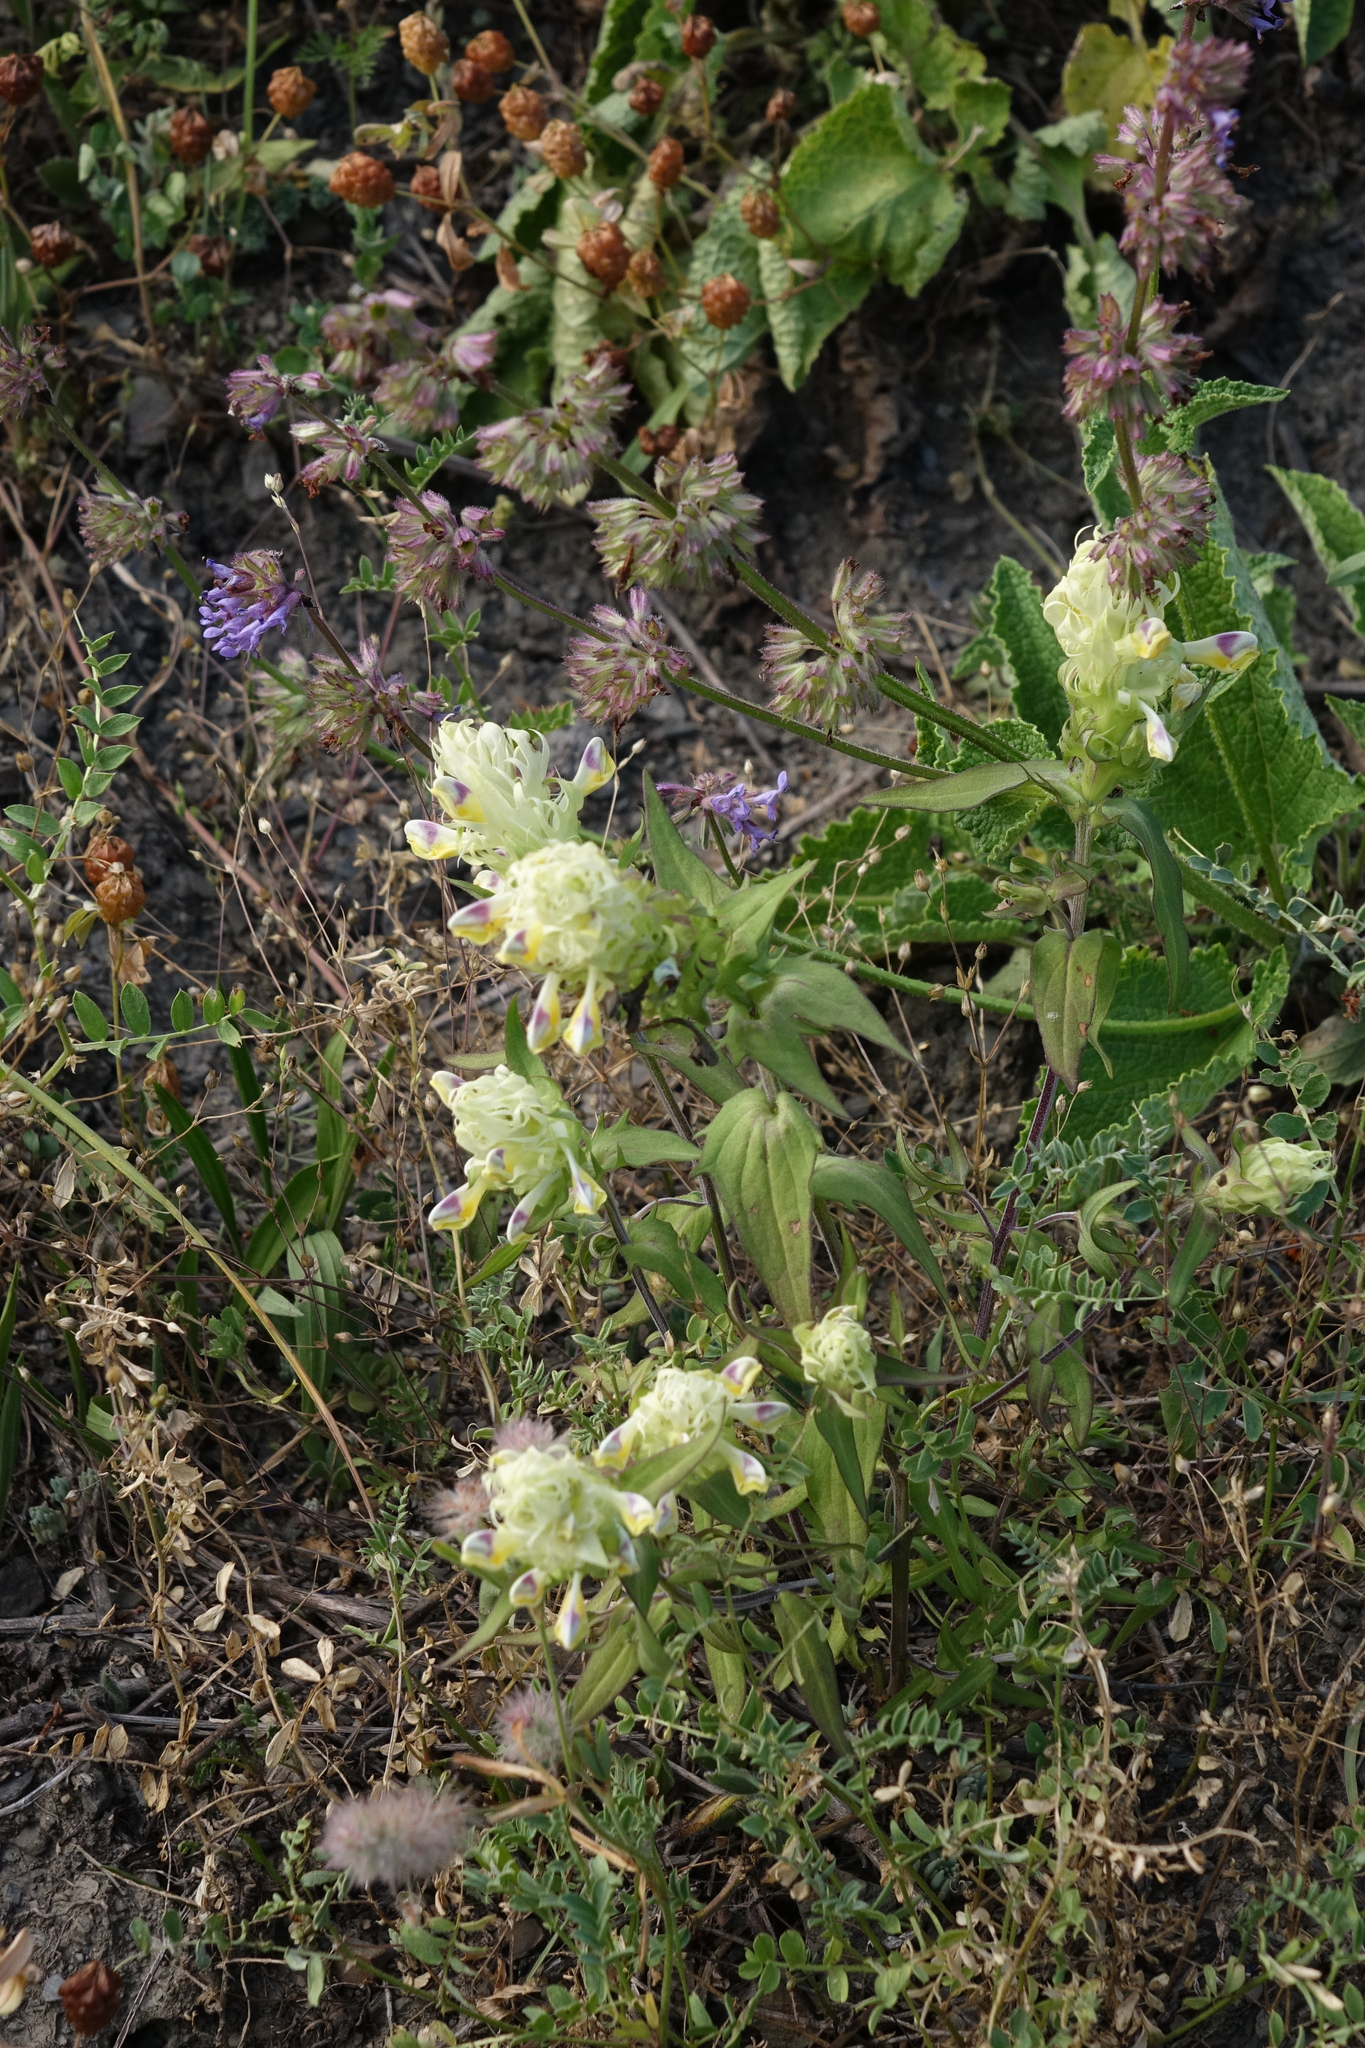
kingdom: Plantae
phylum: Tracheophyta
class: Magnoliopsida
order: Lamiales
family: Orobanchaceae
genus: Melampyrum
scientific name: Melampyrum arvense
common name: Field cow-wheat
